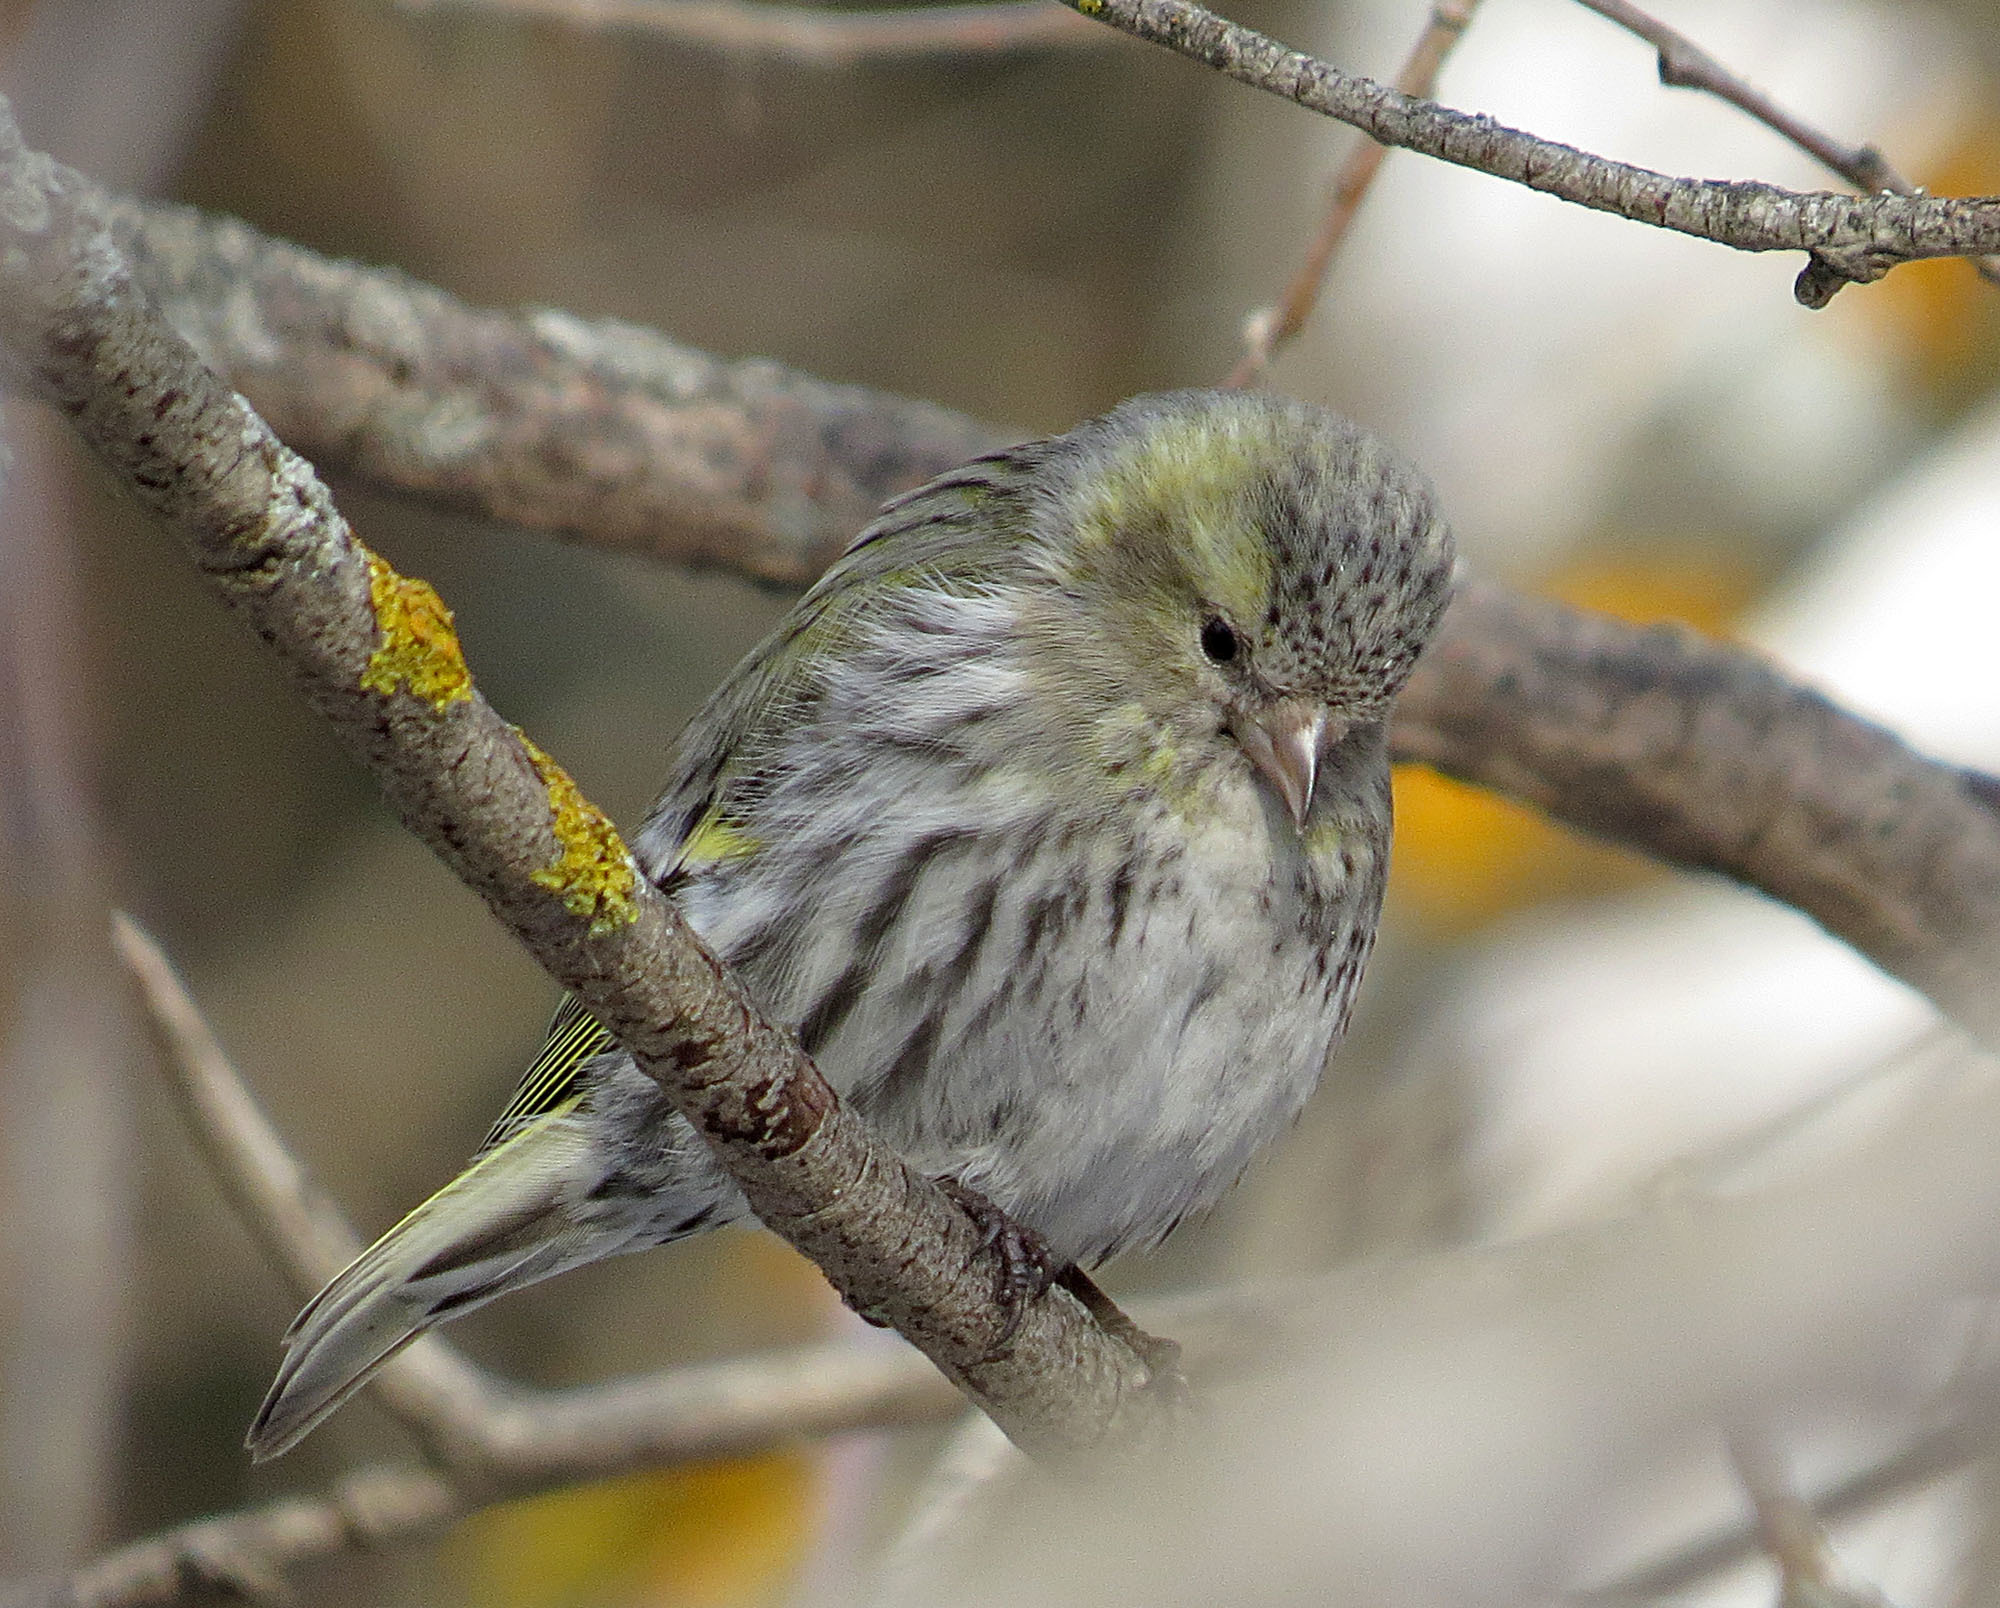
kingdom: Animalia
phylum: Chordata
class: Aves
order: Passeriformes
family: Fringillidae
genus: Spinus
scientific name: Spinus spinus
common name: Eurasian siskin
